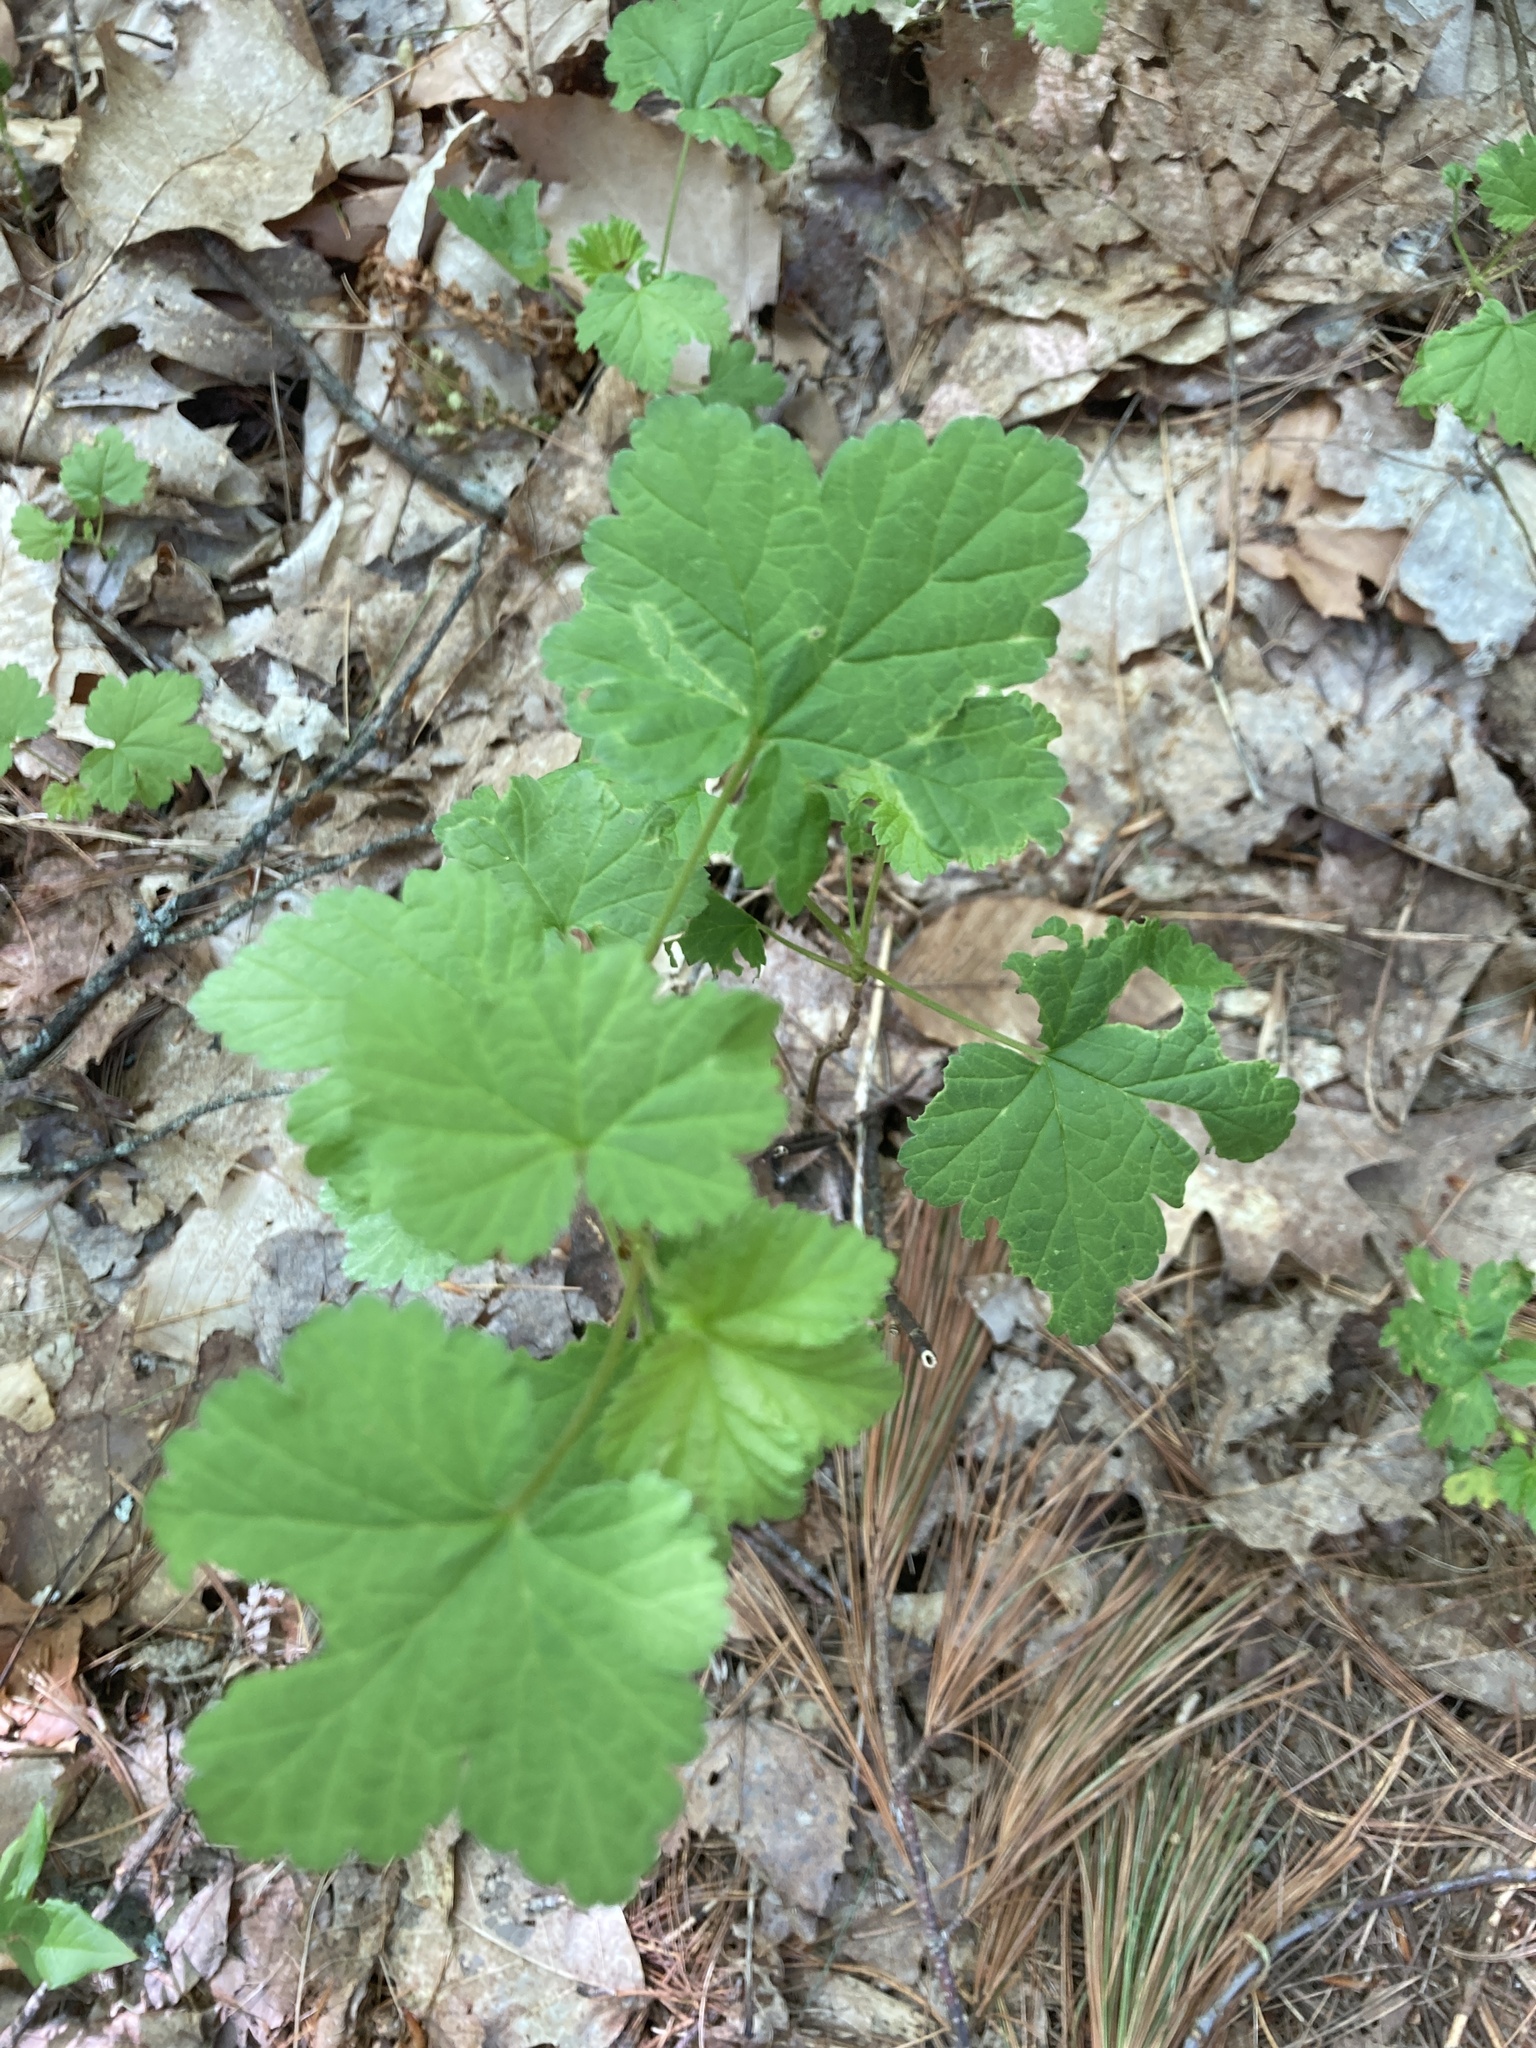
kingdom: Plantae
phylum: Tracheophyta
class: Magnoliopsida
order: Saxifragales
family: Grossulariaceae
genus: Ribes
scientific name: Ribes rubrum
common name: Red currant
